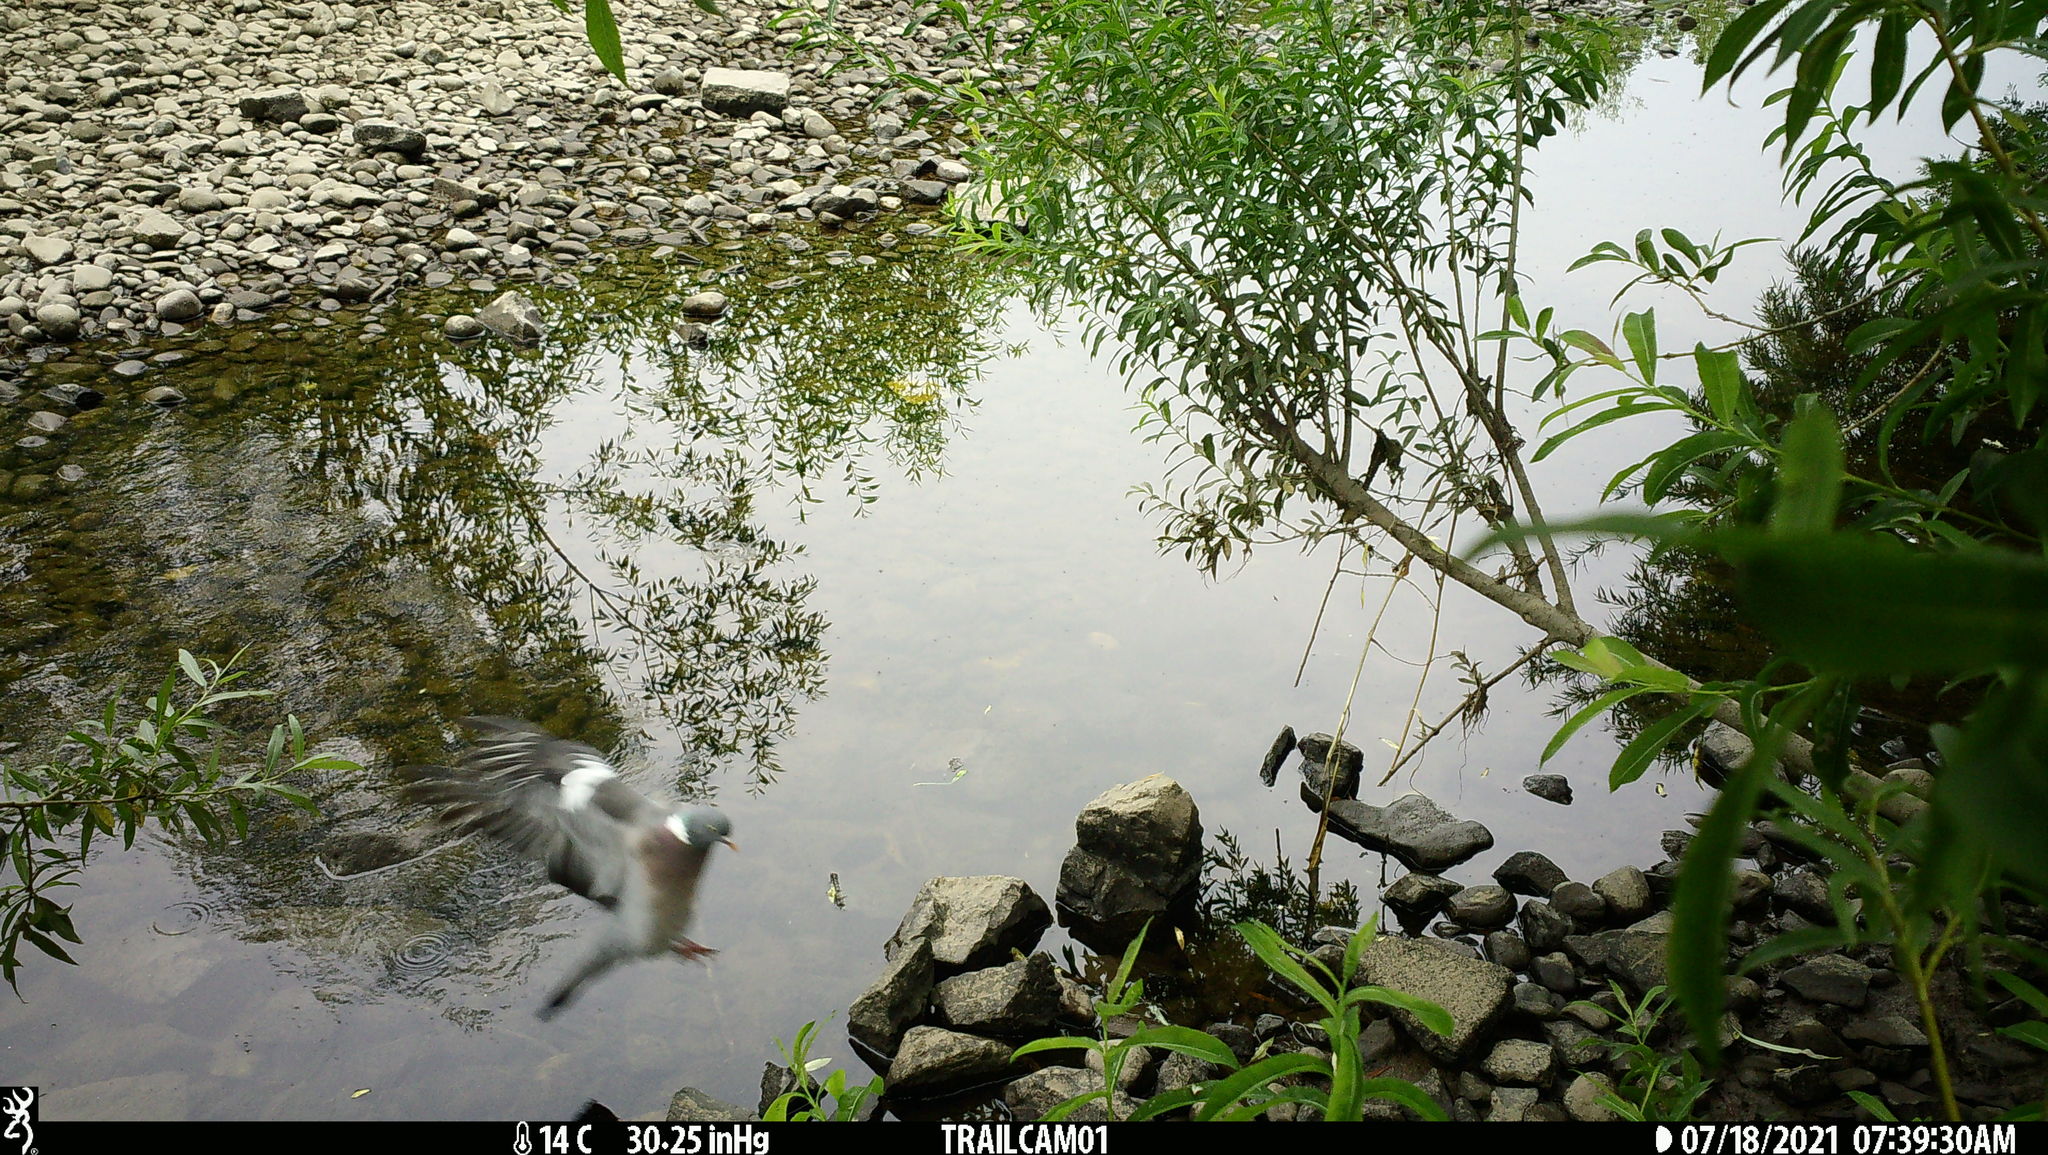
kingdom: Animalia
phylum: Chordata
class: Aves
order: Columbiformes
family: Columbidae
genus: Columba
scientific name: Columba palumbus
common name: Common wood pigeon
